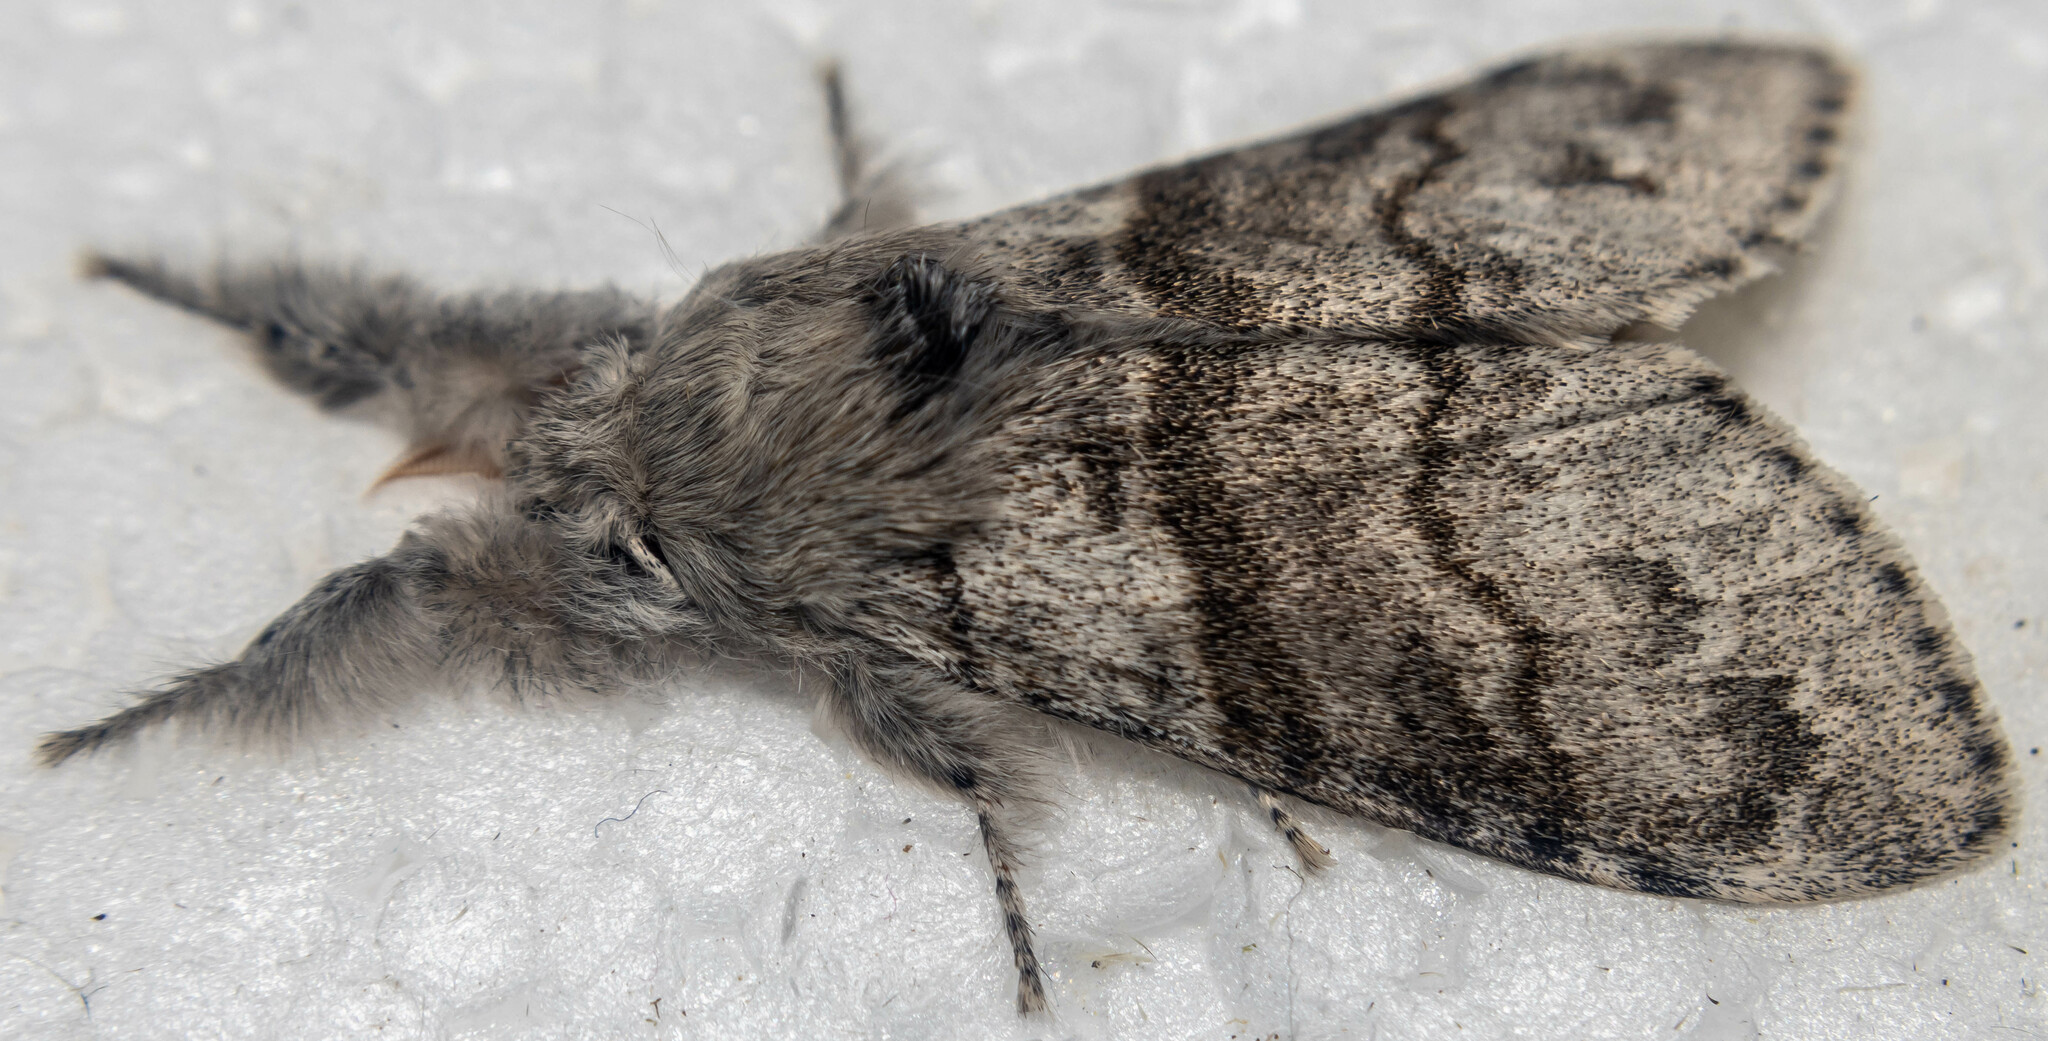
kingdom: Animalia
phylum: Arthropoda
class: Insecta
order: Lepidoptera
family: Erebidae
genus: Calliteara
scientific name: Calliteara pudibunda
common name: Pale tussock
